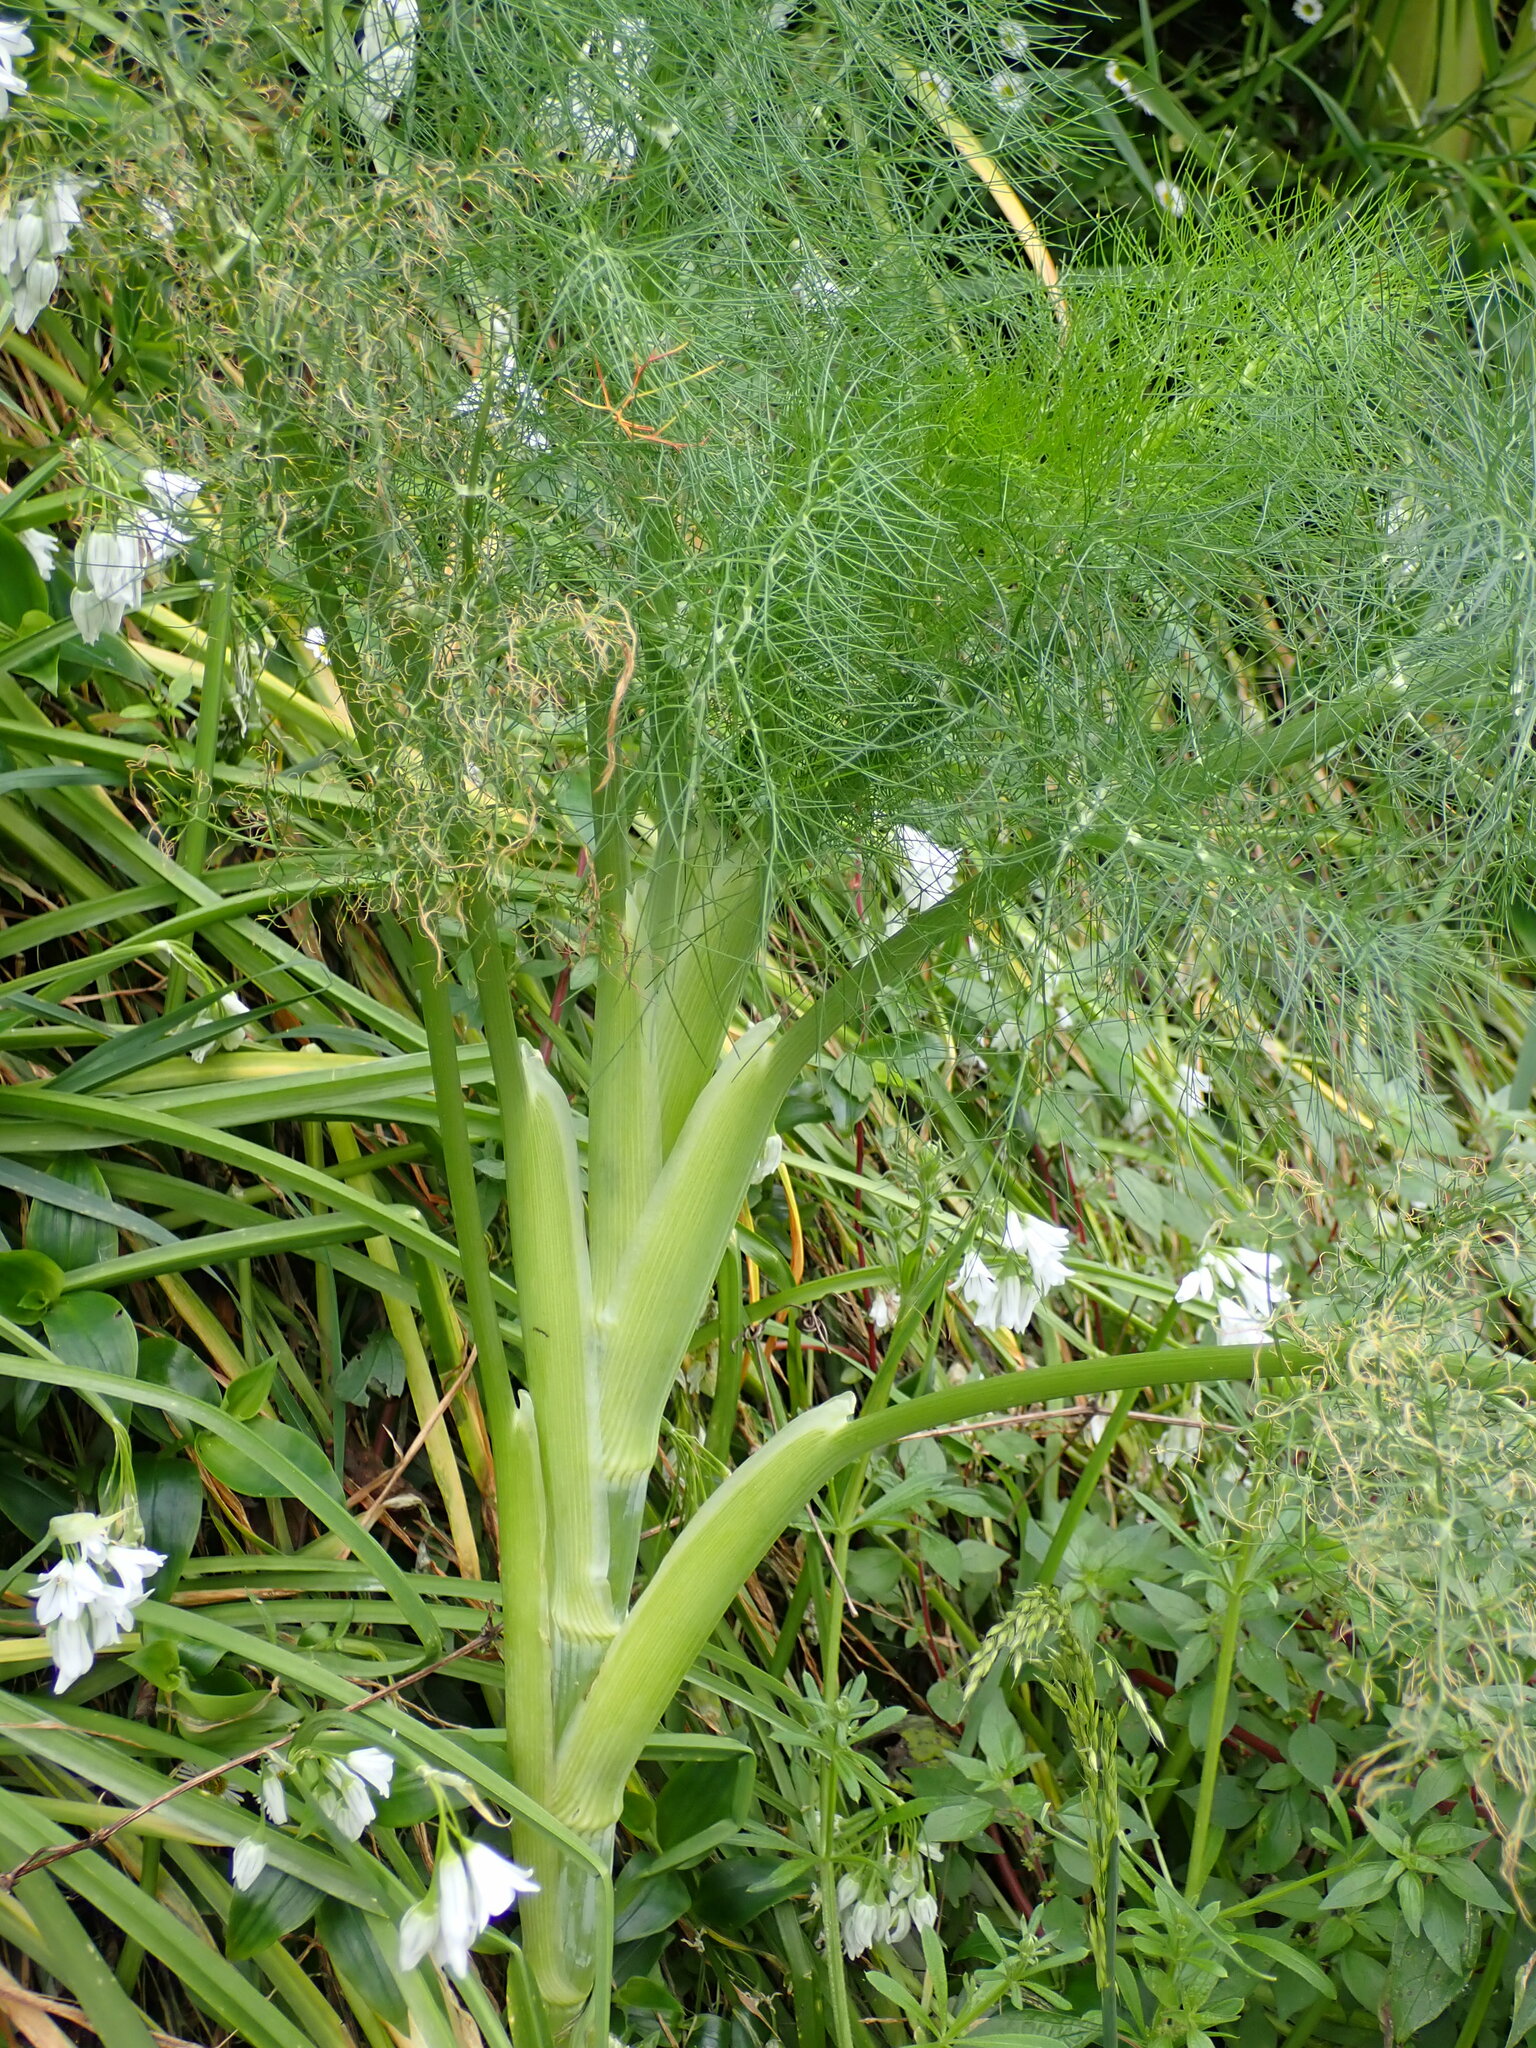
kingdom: Plantae
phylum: Tracheophyta
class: Magnoliopsida
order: Apiales
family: Apiaceae
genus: Foeniculum
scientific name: Foeniculum vulgare
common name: Fennel
